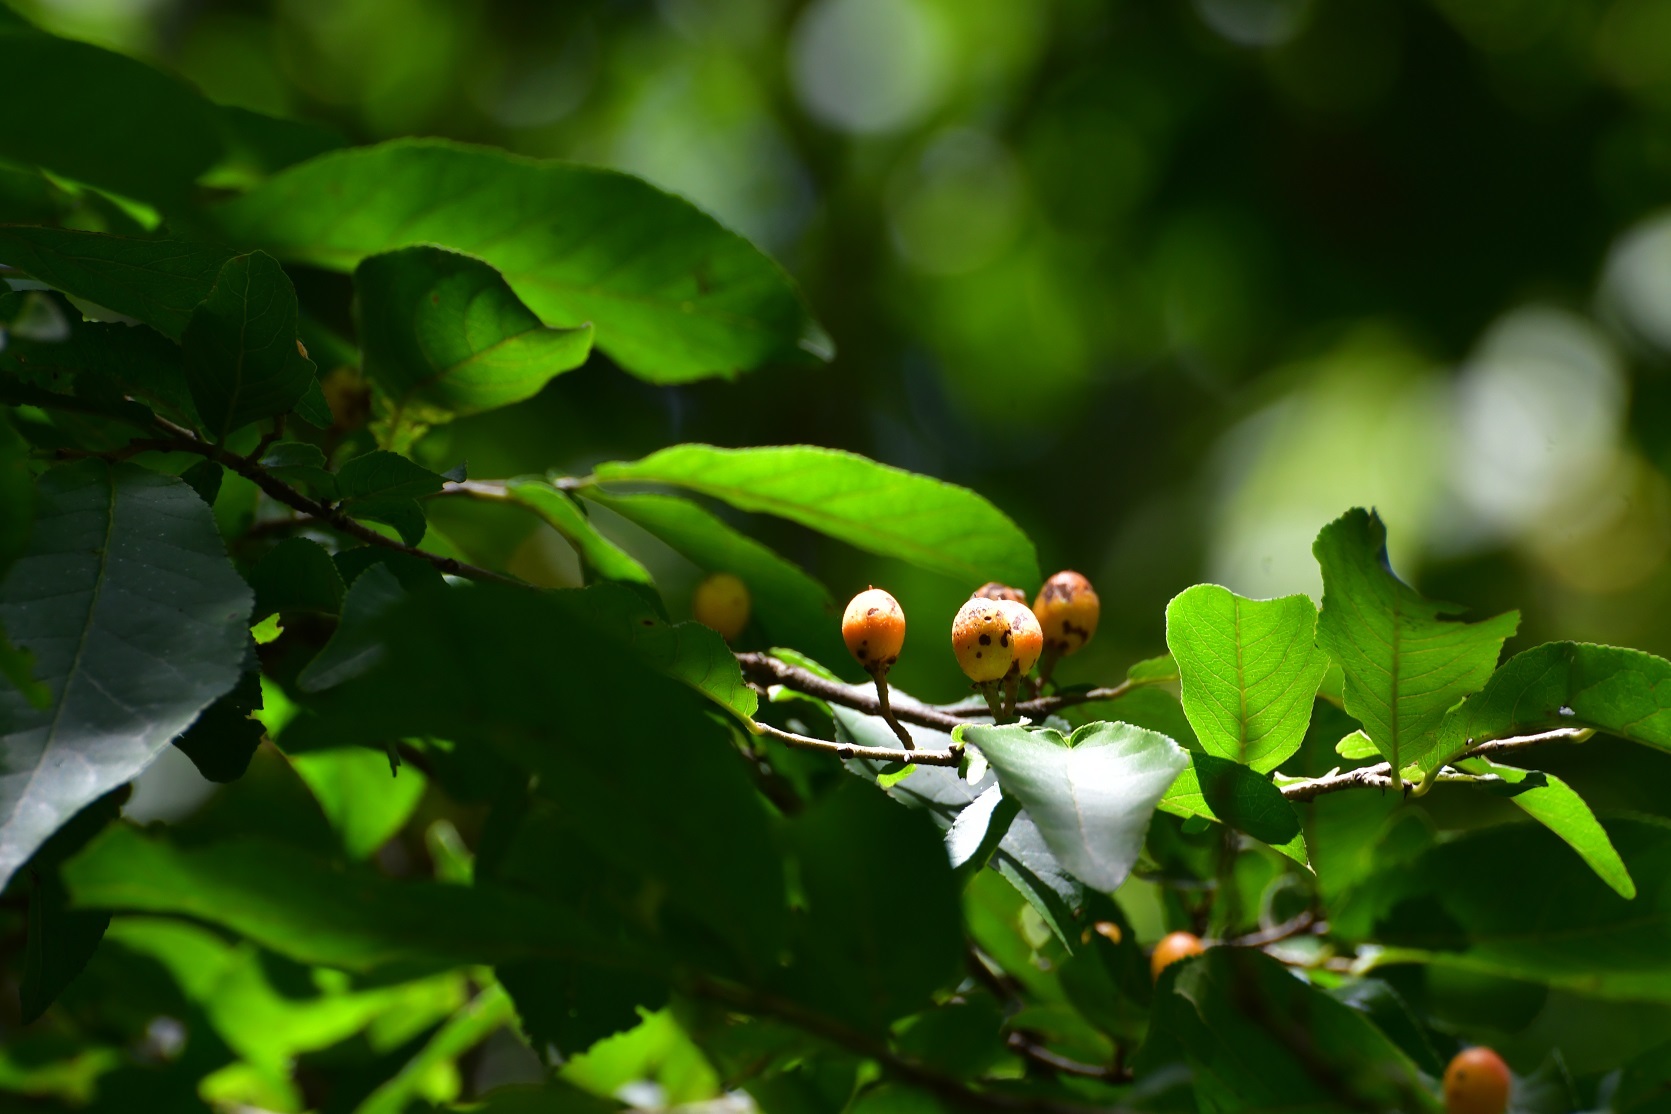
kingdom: Plantae
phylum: Tracheophyta
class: Magnoliopsida
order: Malpighiales
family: Salicaceae
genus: Casearia
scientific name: Casearia aculeata
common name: Cockspur
